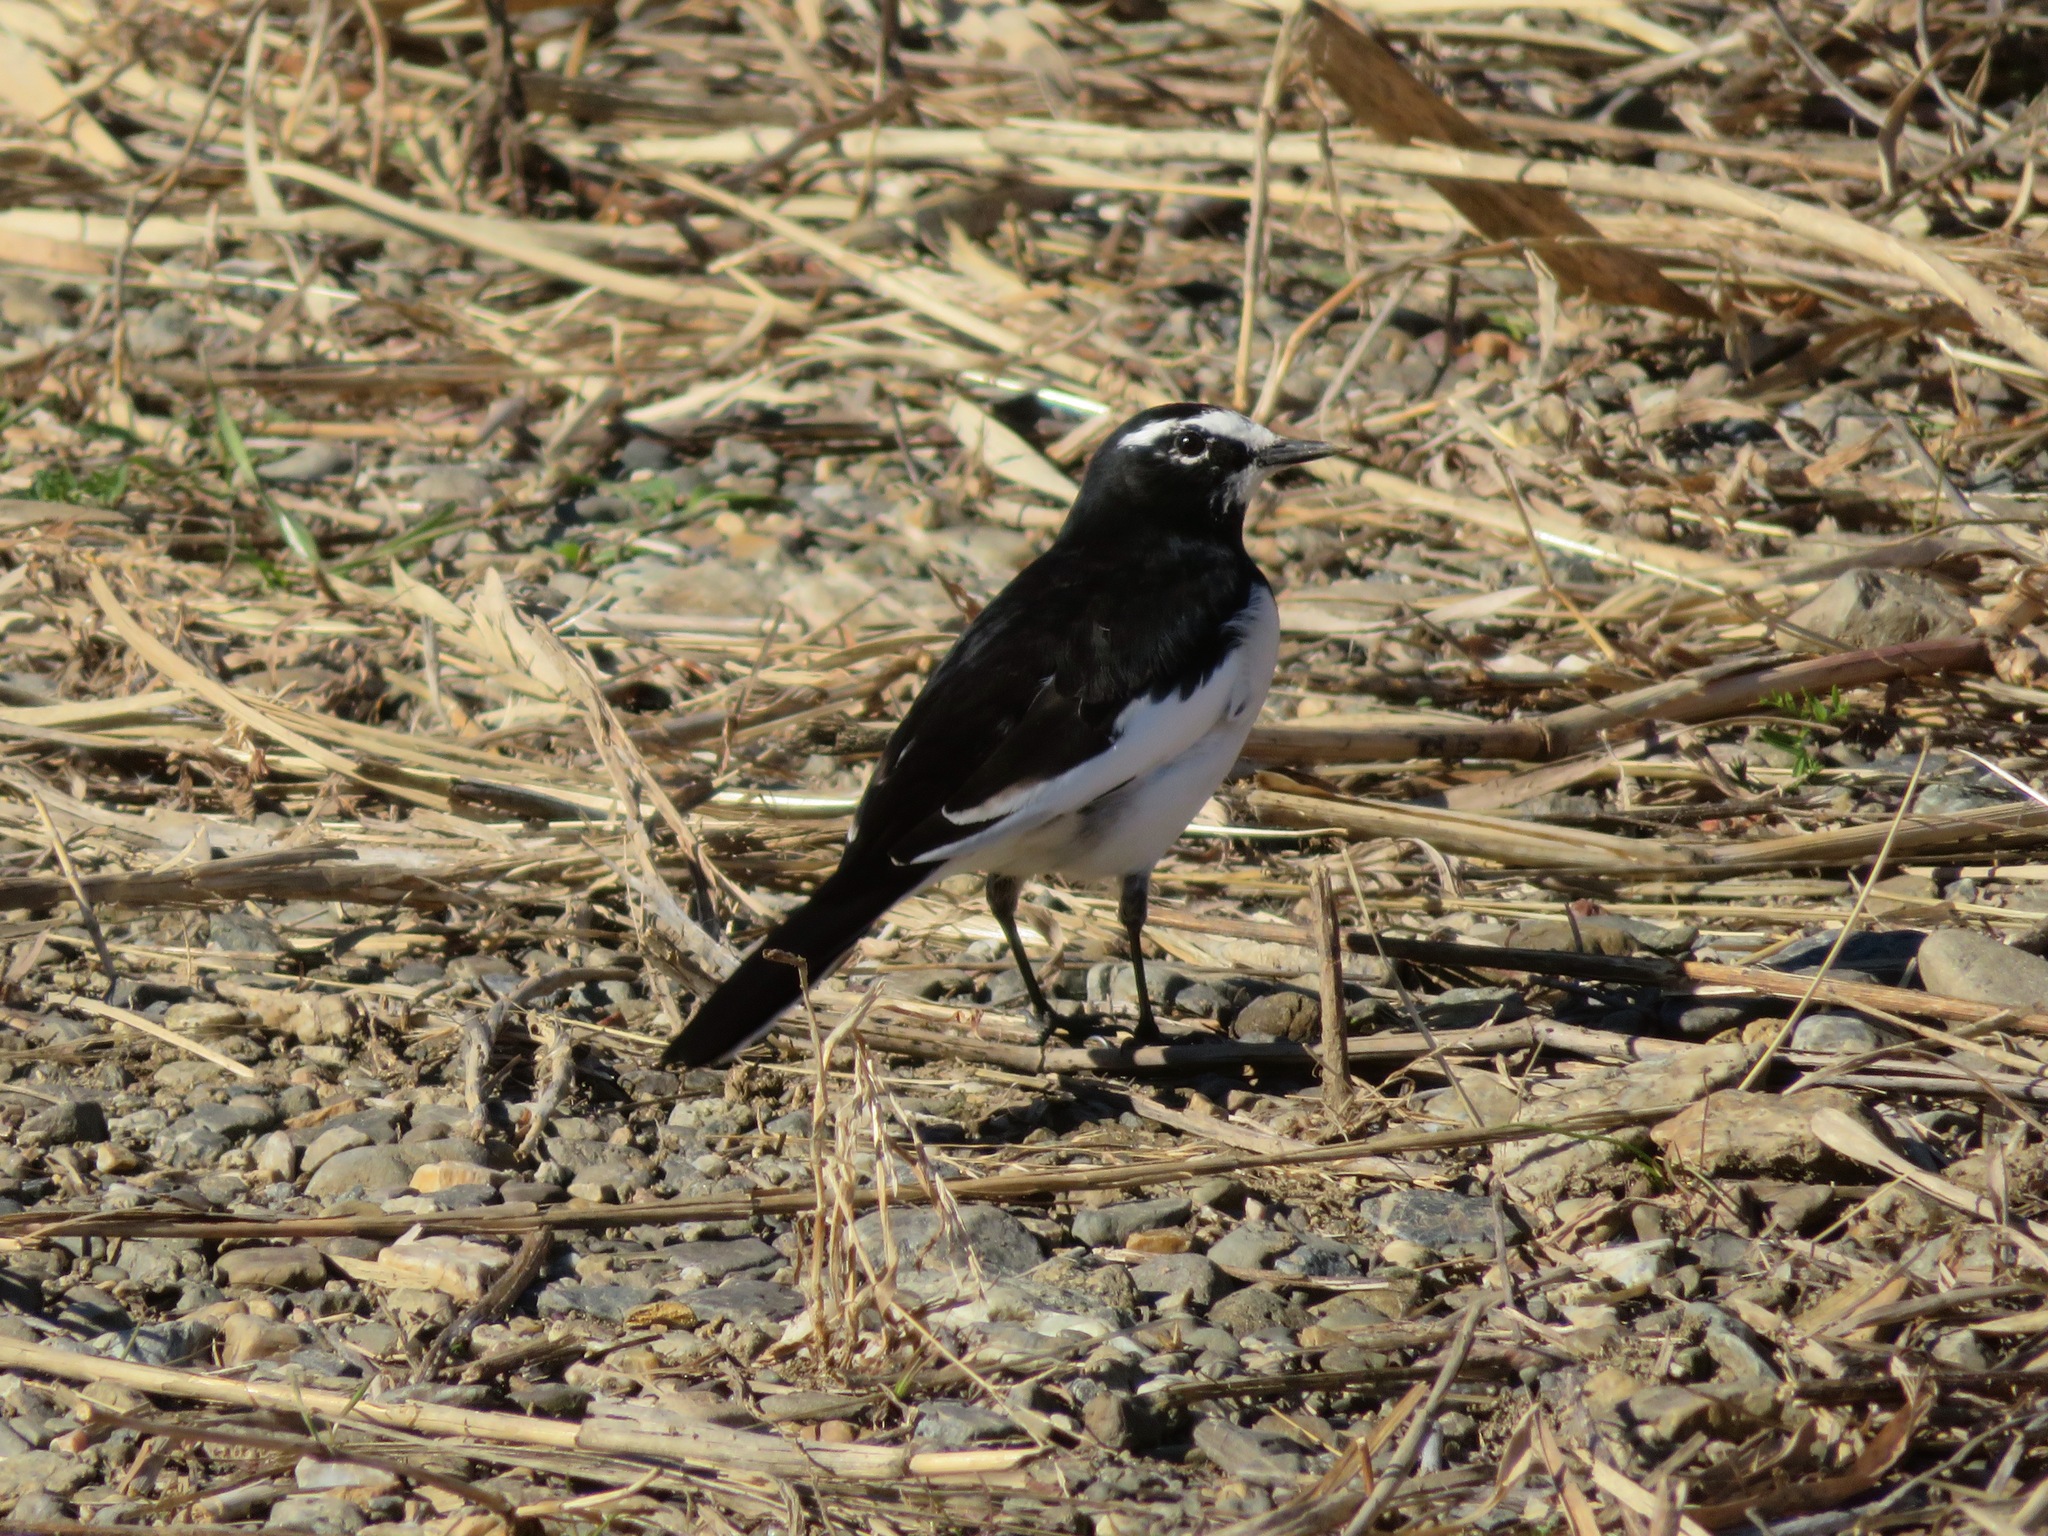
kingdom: Animalia
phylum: Chordata
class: Aves
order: Passeriformes
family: Motacillidae
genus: Motacilla
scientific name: Motacilla grandis
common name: Japanese wagtail
